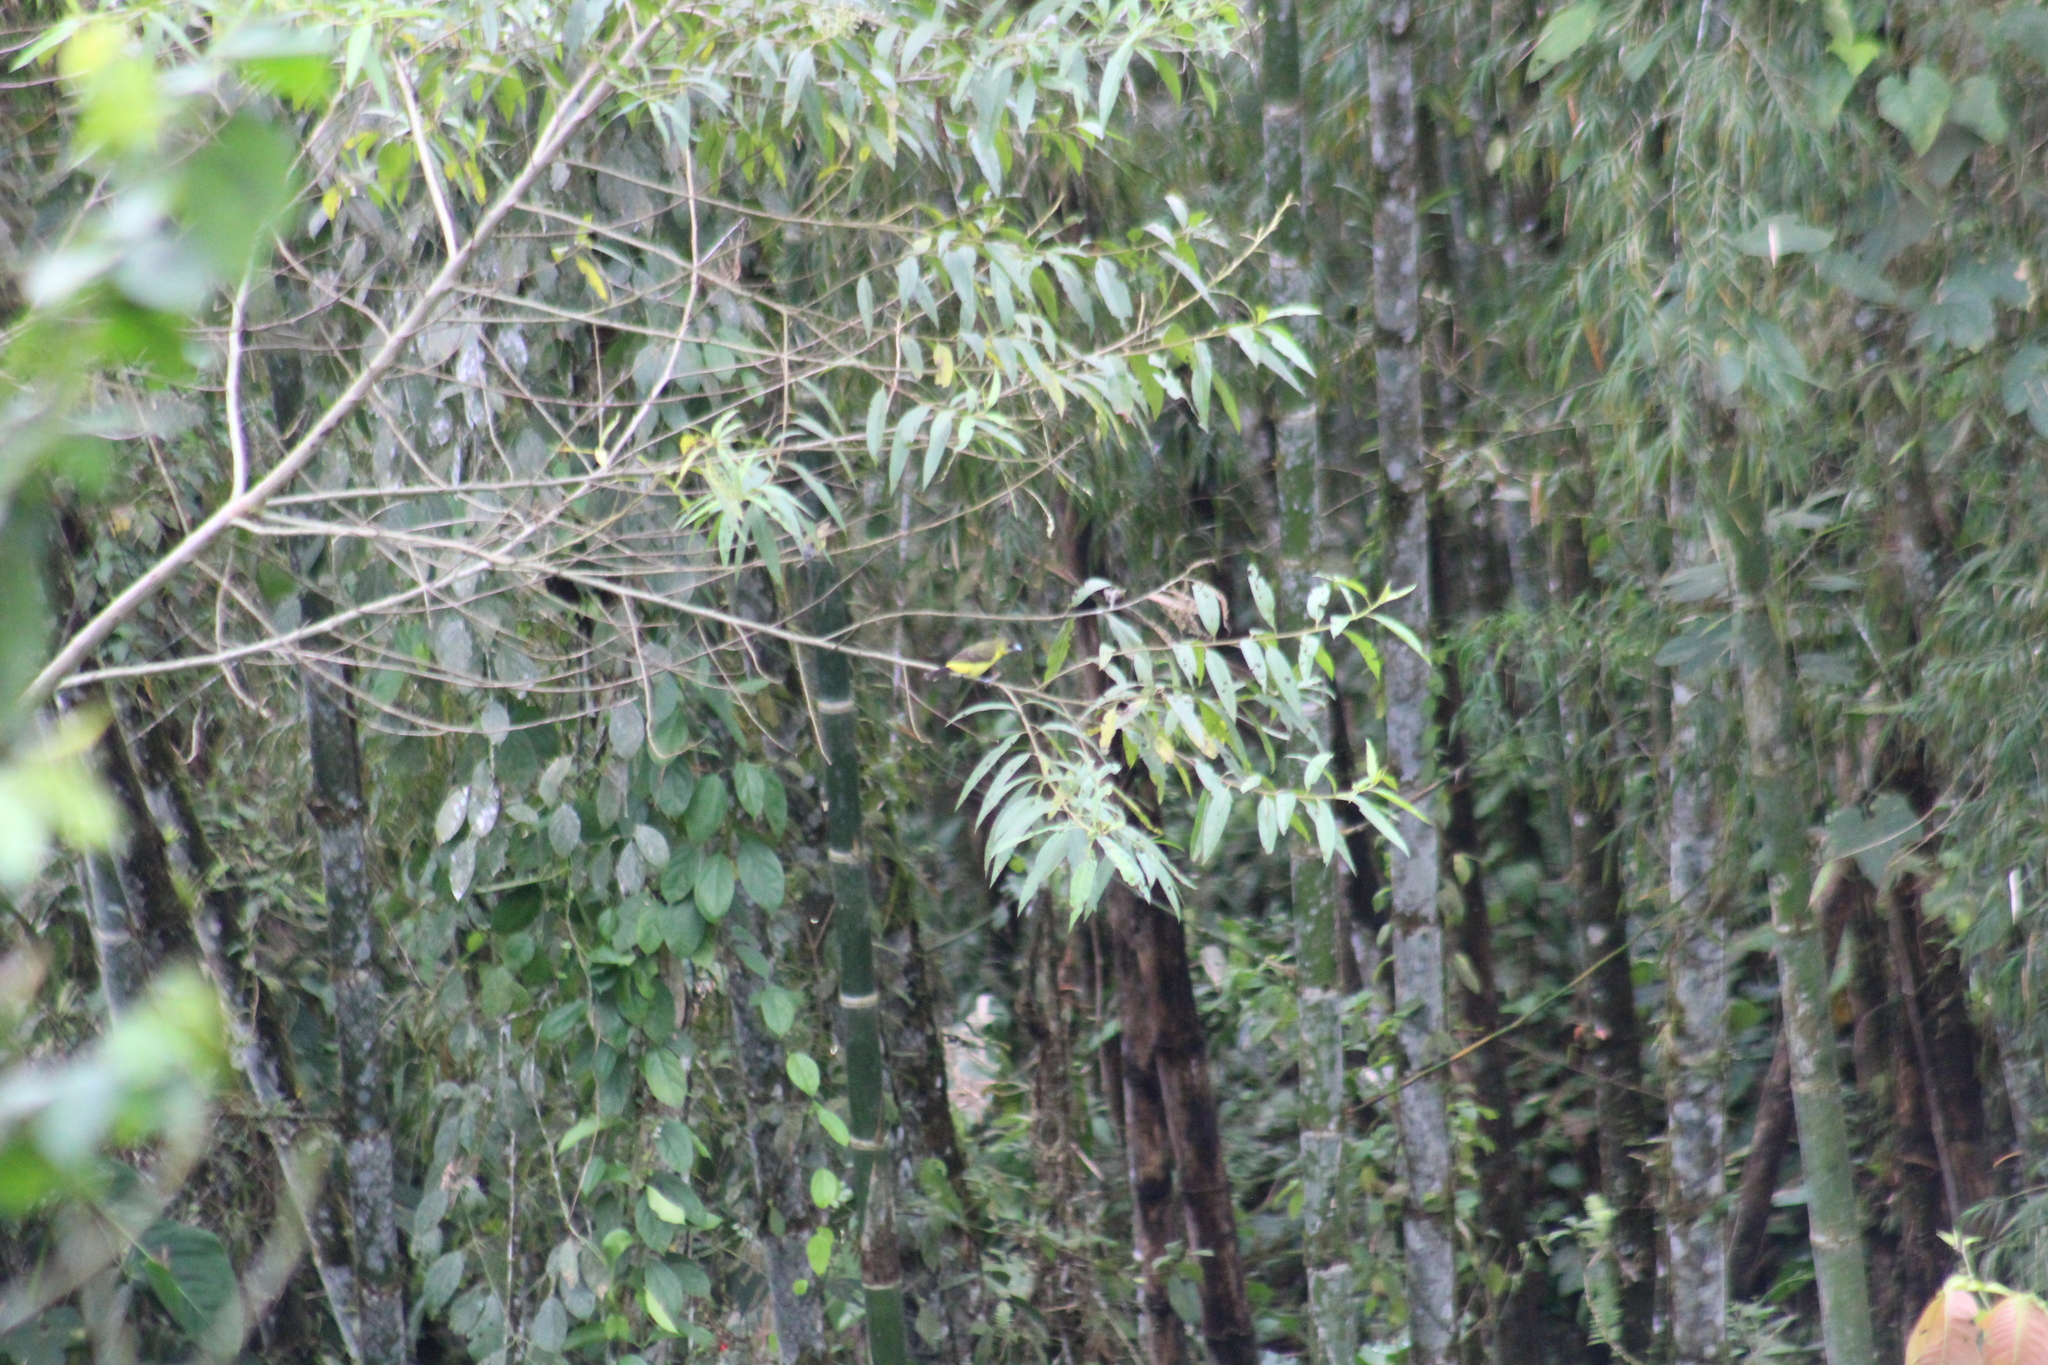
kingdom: Animalia
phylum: Chordata
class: Aves
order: Passeriformes
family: Thraupidae
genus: Ramphocelus
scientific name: Ramphocelus icteronotus
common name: Lemon-rumped tanager
